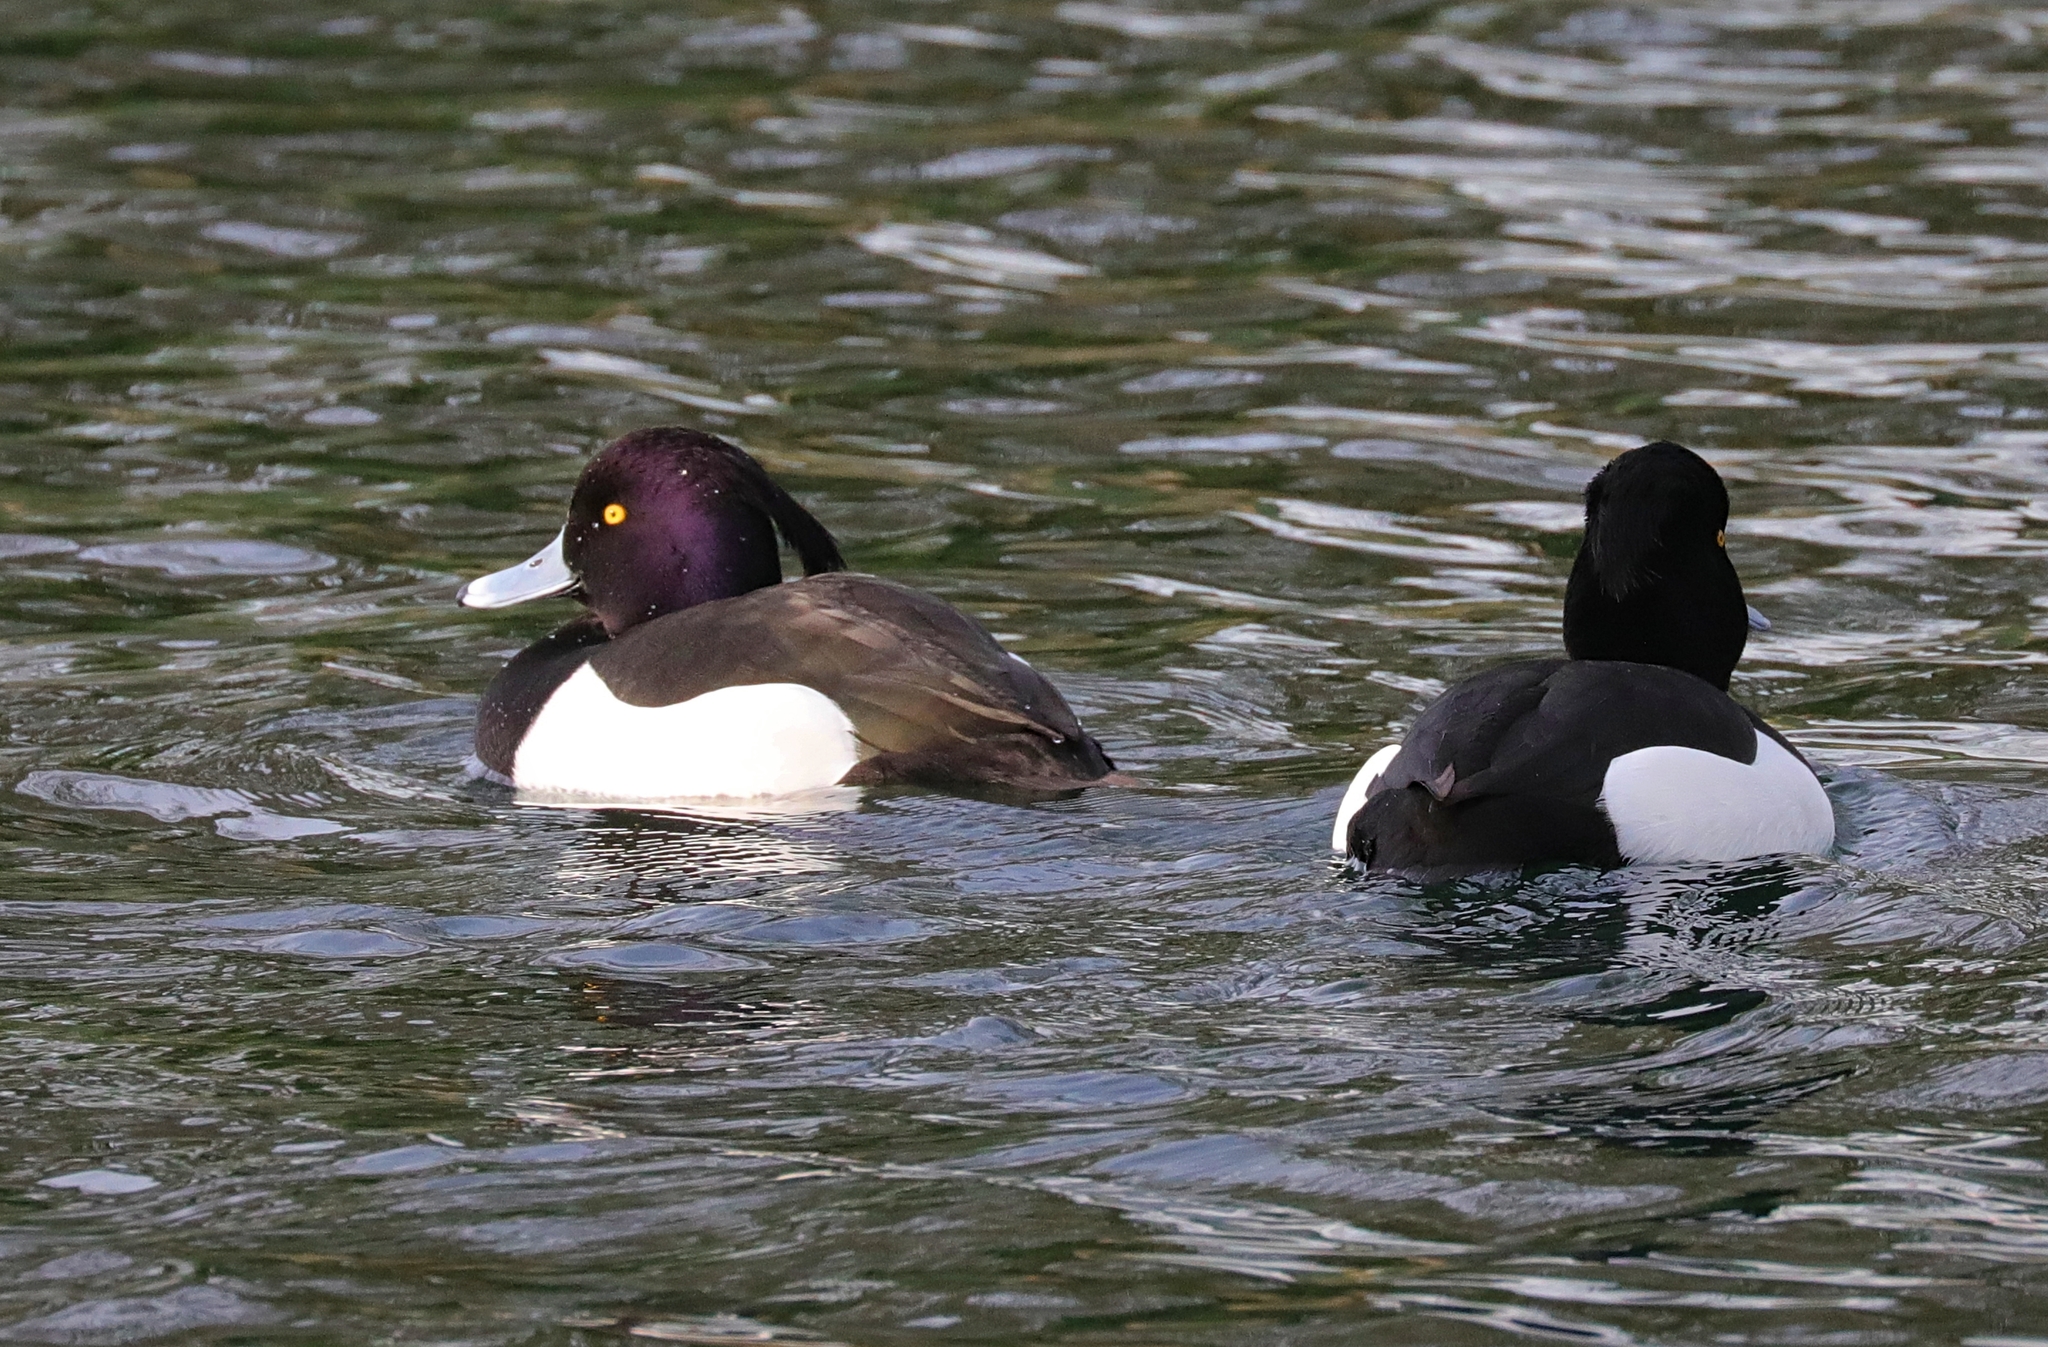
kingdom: Animalia
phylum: Chordata
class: Aves
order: Anseriformes
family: Anatidae
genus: Aythya
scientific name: Aythya fuligula
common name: Tufted duck
